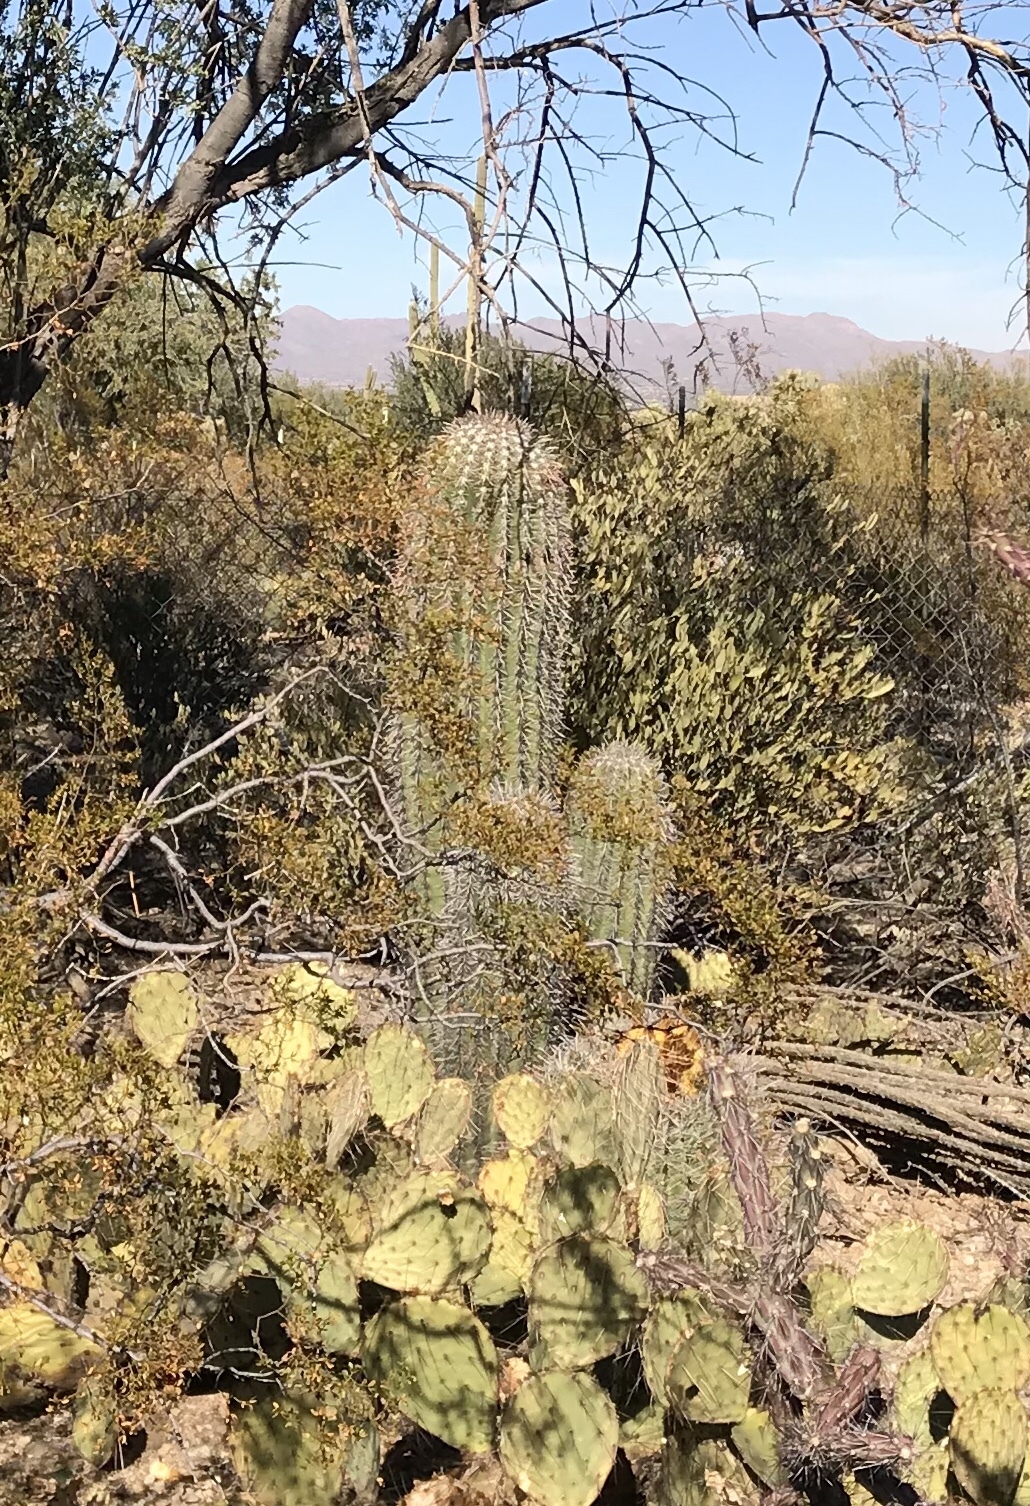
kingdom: Plantae
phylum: Tracheophyta
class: Magnoliopsida
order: Caryophyllales
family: Cactaceae
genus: Carnegiea
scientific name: Carnegiea gigantea
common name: Saguaro
